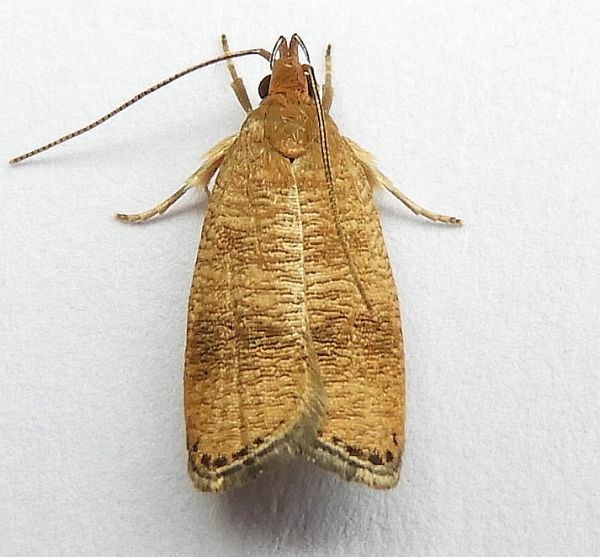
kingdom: Animalia
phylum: Arthropoda
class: Insecta
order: Lepidoptera
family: Depressariidae
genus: Psilocorsis
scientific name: Psilocorsis cryptolechiella
